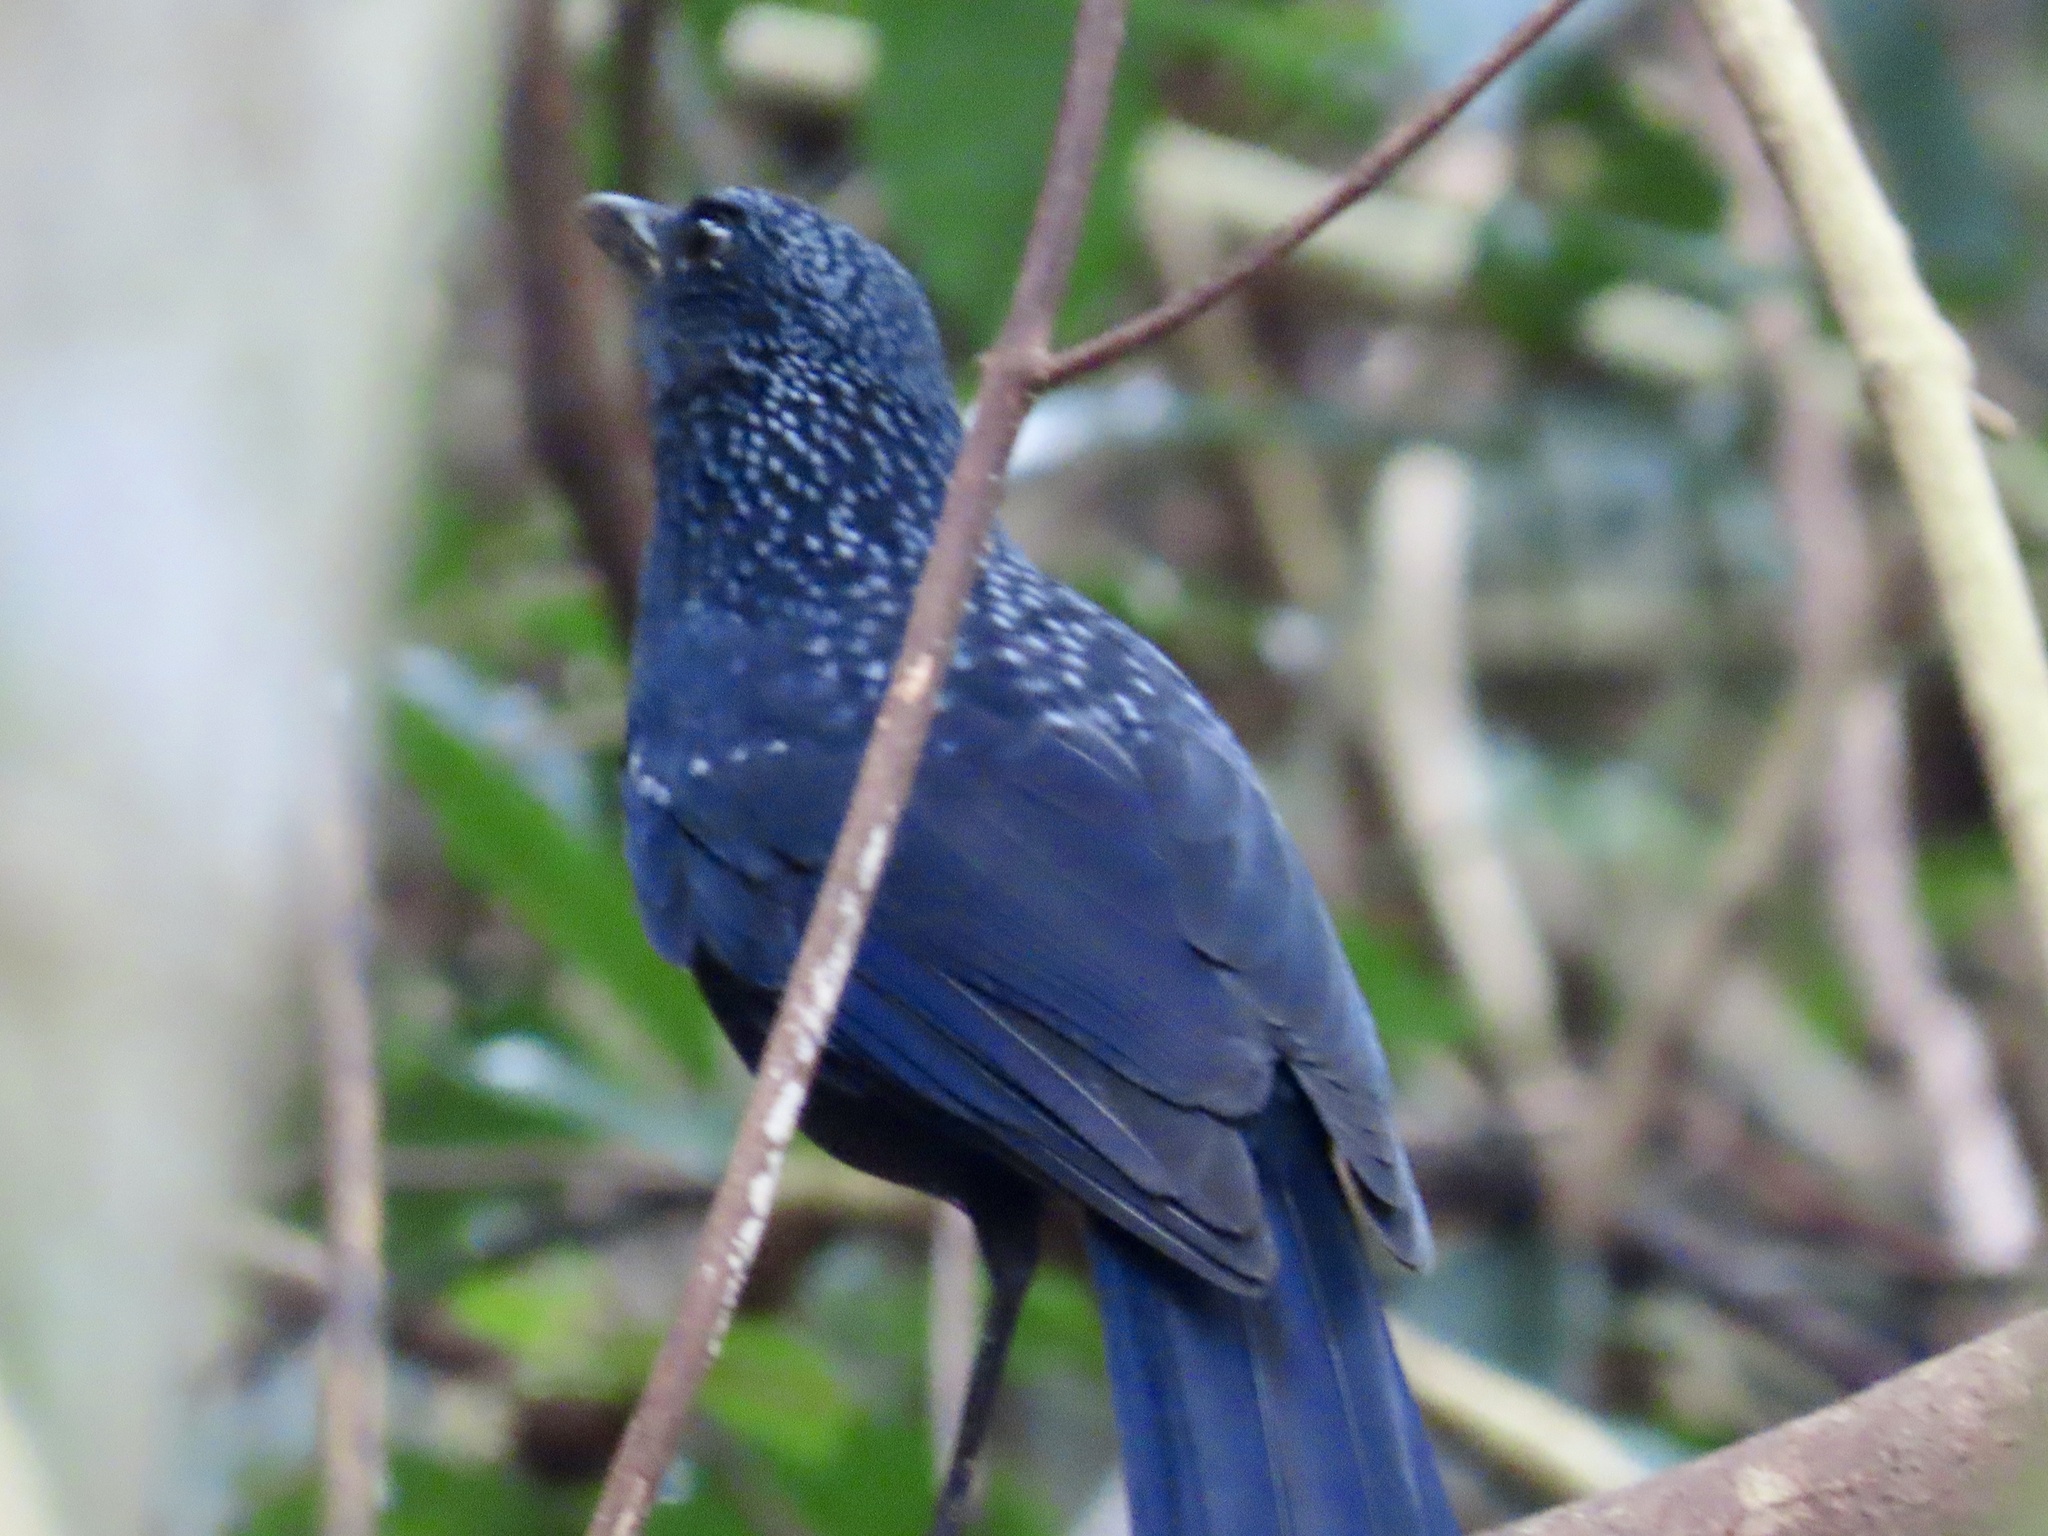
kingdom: Animalia
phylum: Chordata
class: Aves
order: Passeriformes
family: Muscicapidae
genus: Myophonus
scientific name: Myophonus caeruleus
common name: Blue whistling-thrush
